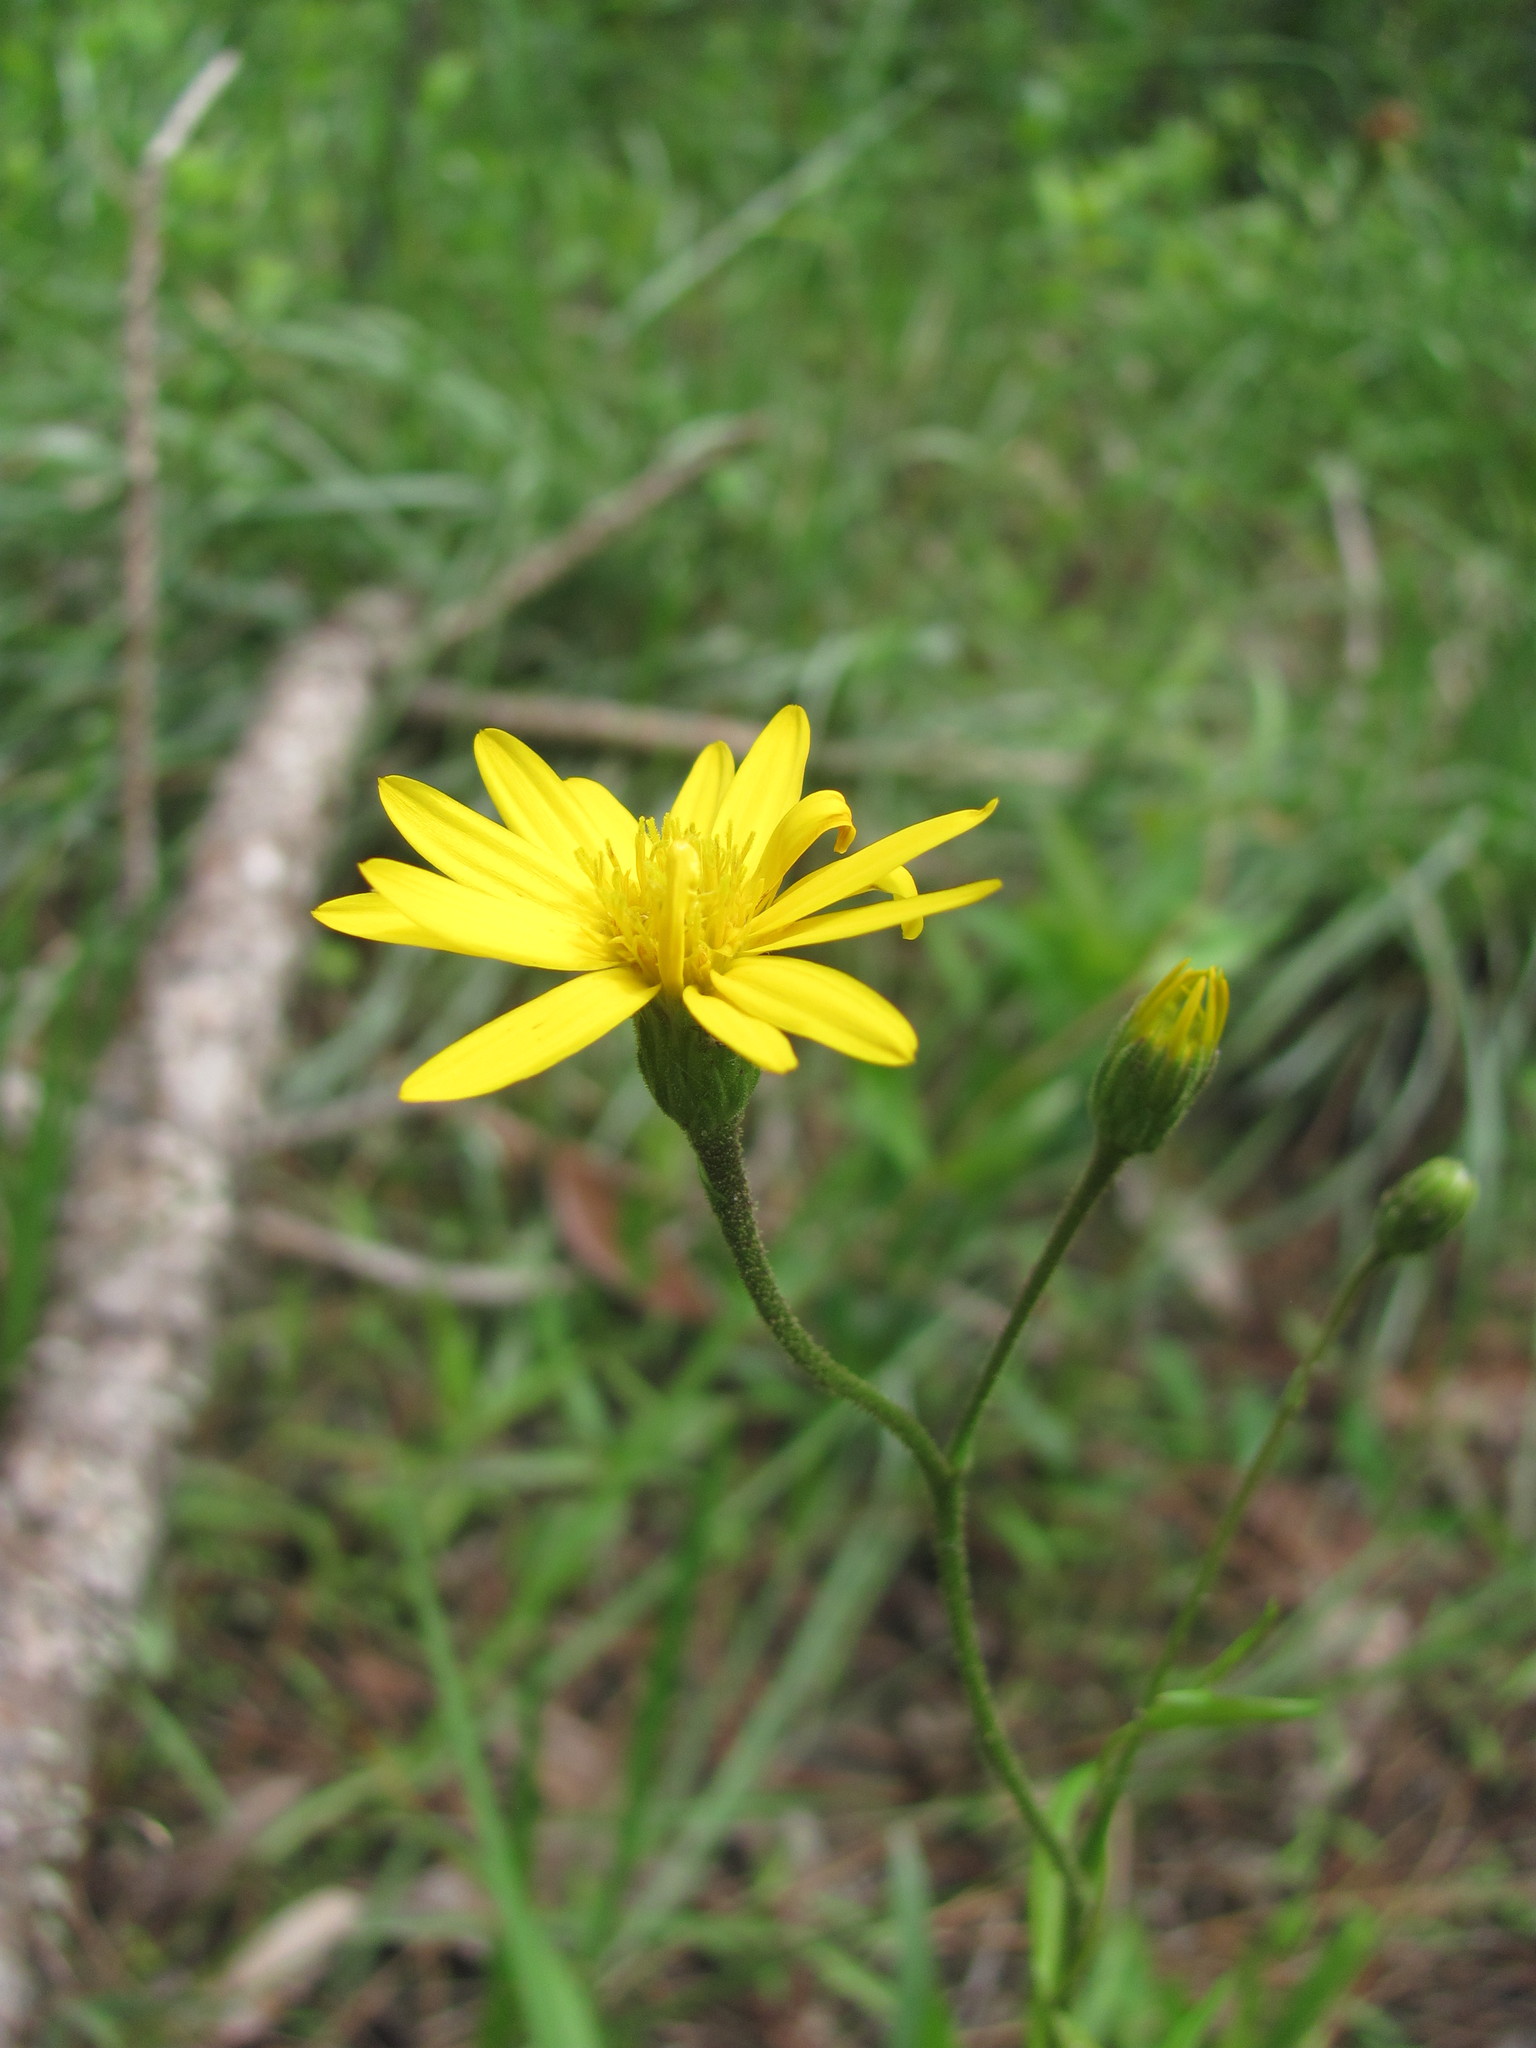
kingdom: Plantae
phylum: Tracheophyta
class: Magnoliopsida
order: Asterales
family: Asteraceae
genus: Pityopsis
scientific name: Pityopsis oligantha
